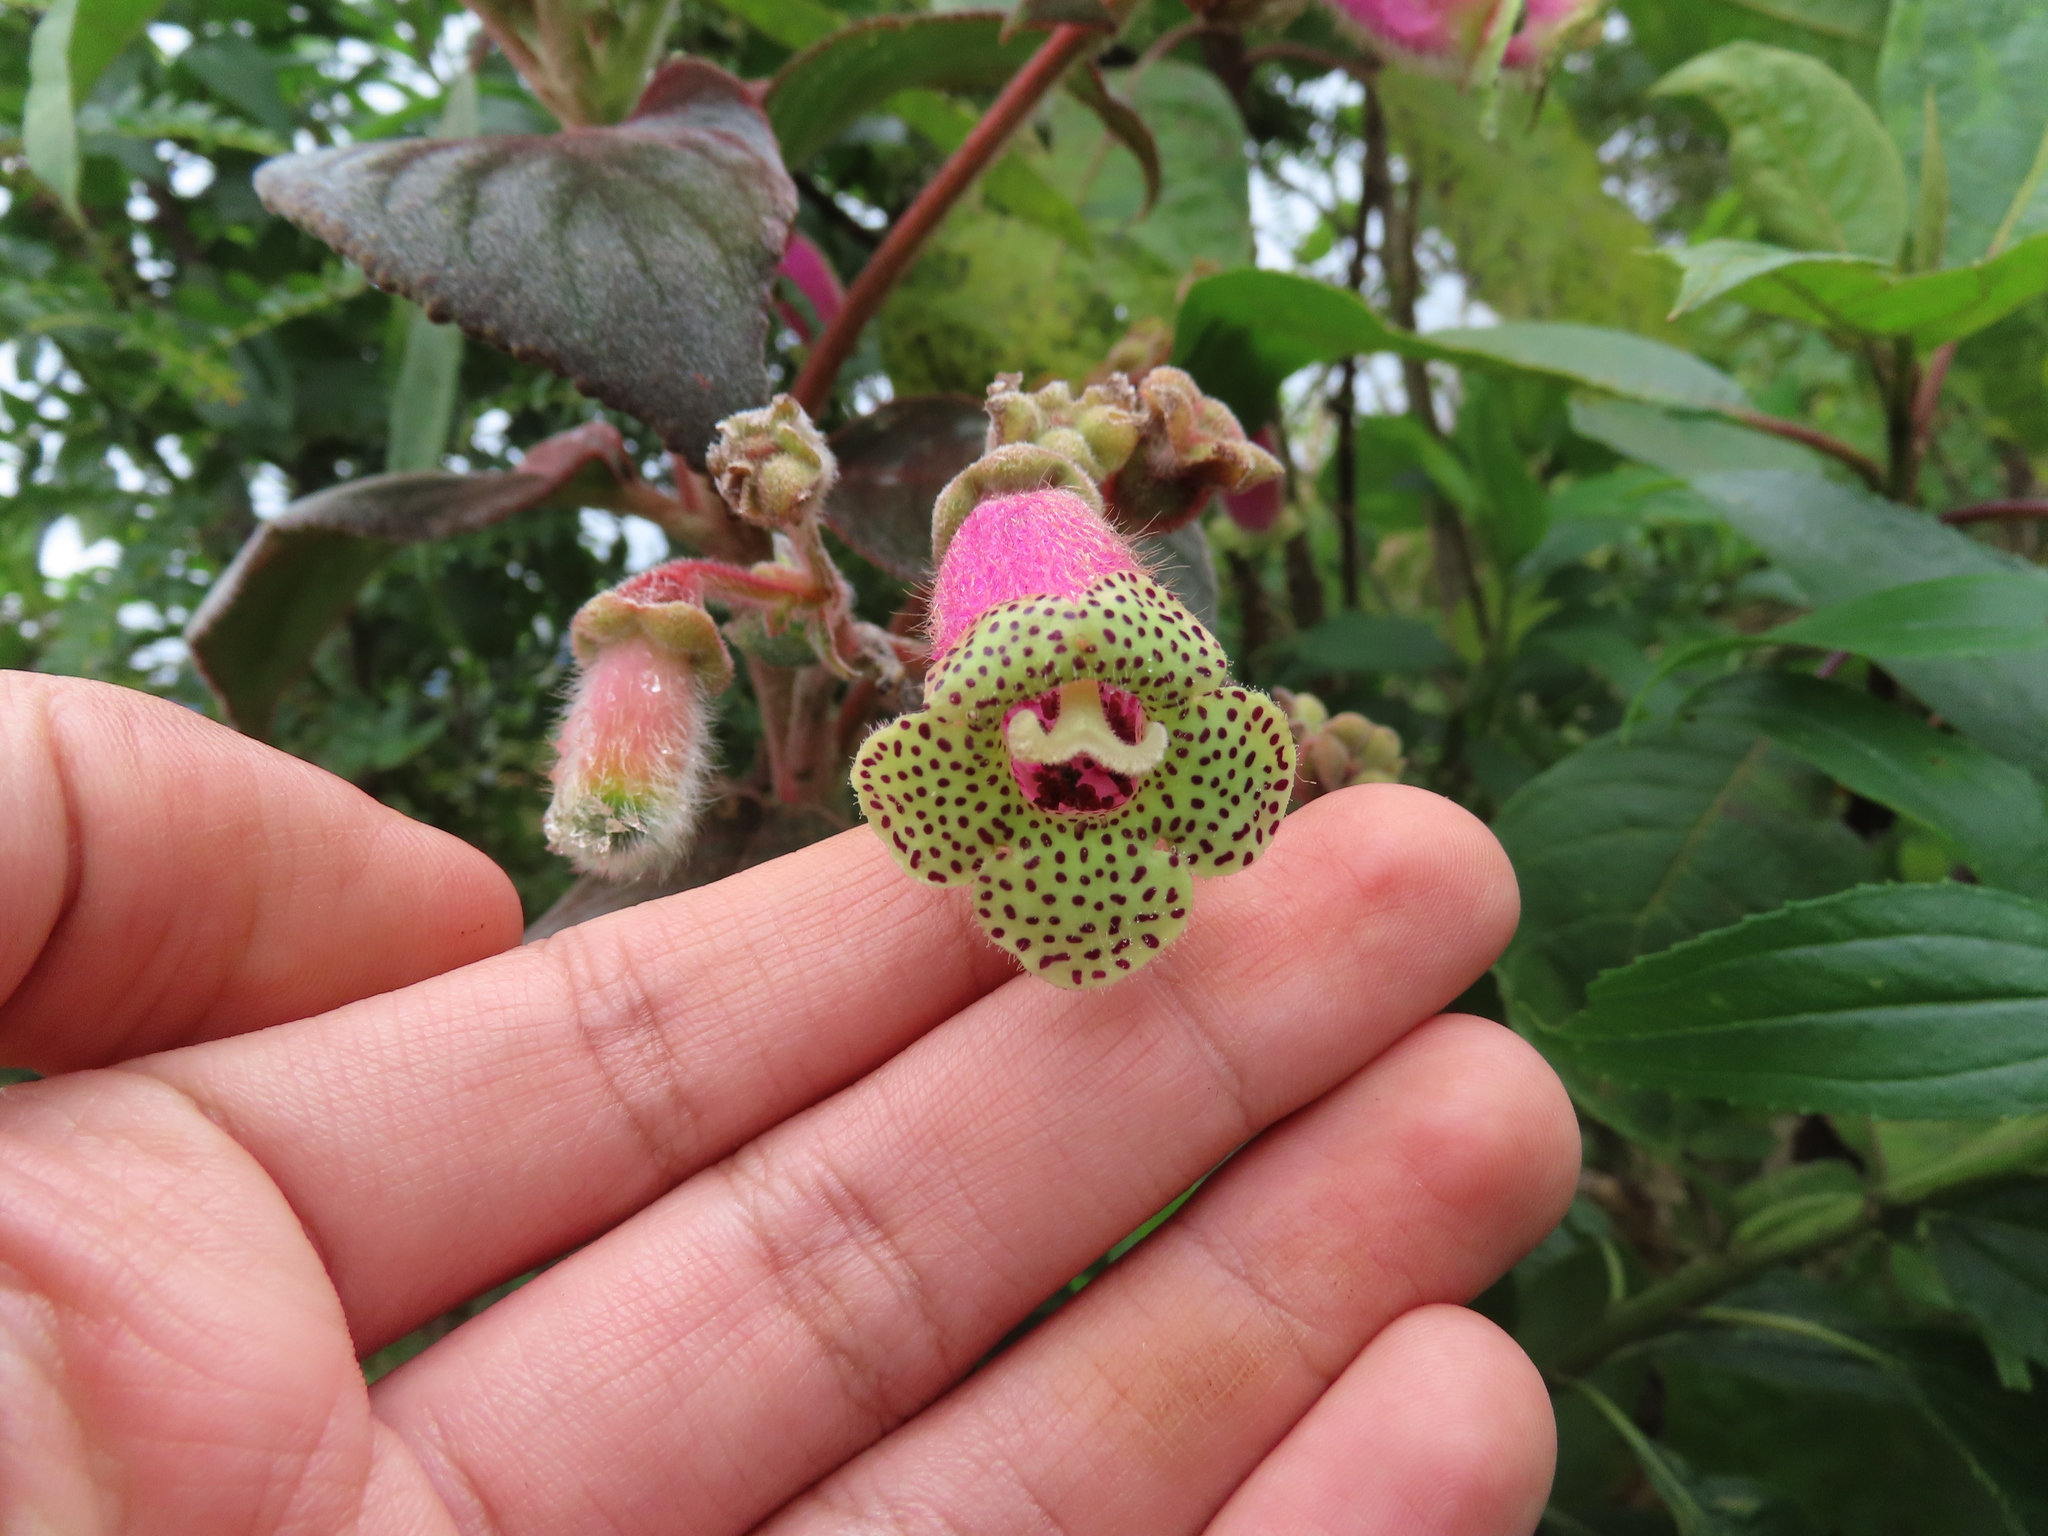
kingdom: Plantae
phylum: Tracheophyta
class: Magnoliopsida
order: Lamiales
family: Gesneriaceae
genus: Kohleria
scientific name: Kohleria warszewiczii
